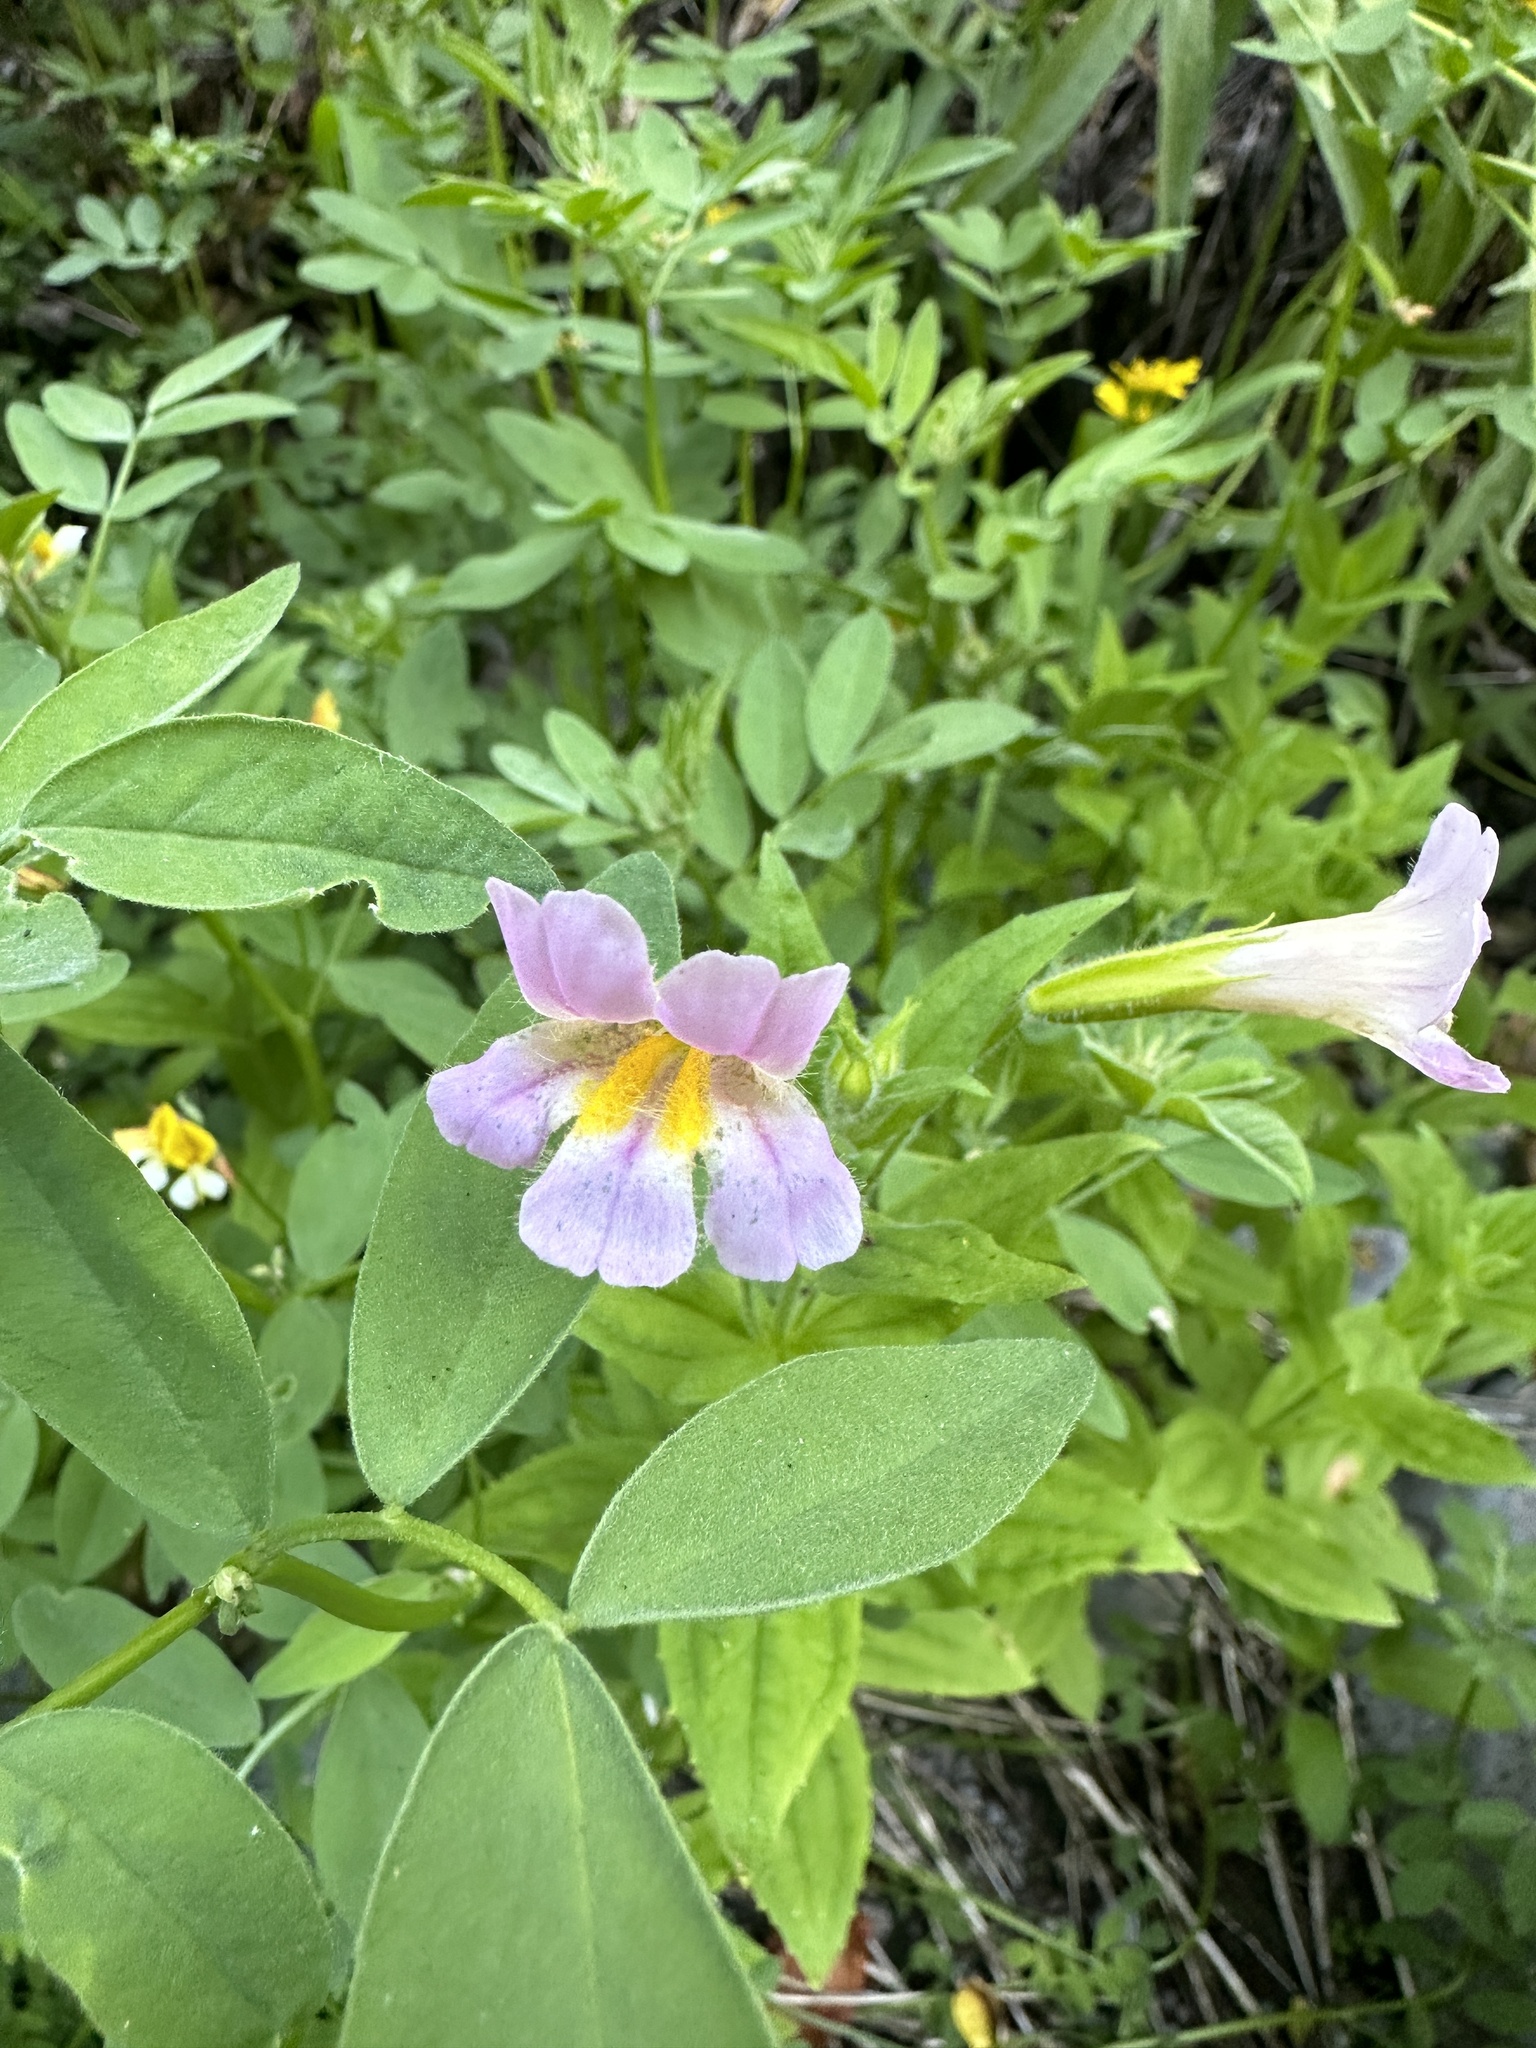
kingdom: Plantae
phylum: Tracheophyta
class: Magnoliopsida
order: Lamiales
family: Phrymaceae
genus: Erythranthe
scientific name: Erythranthe erubescens
